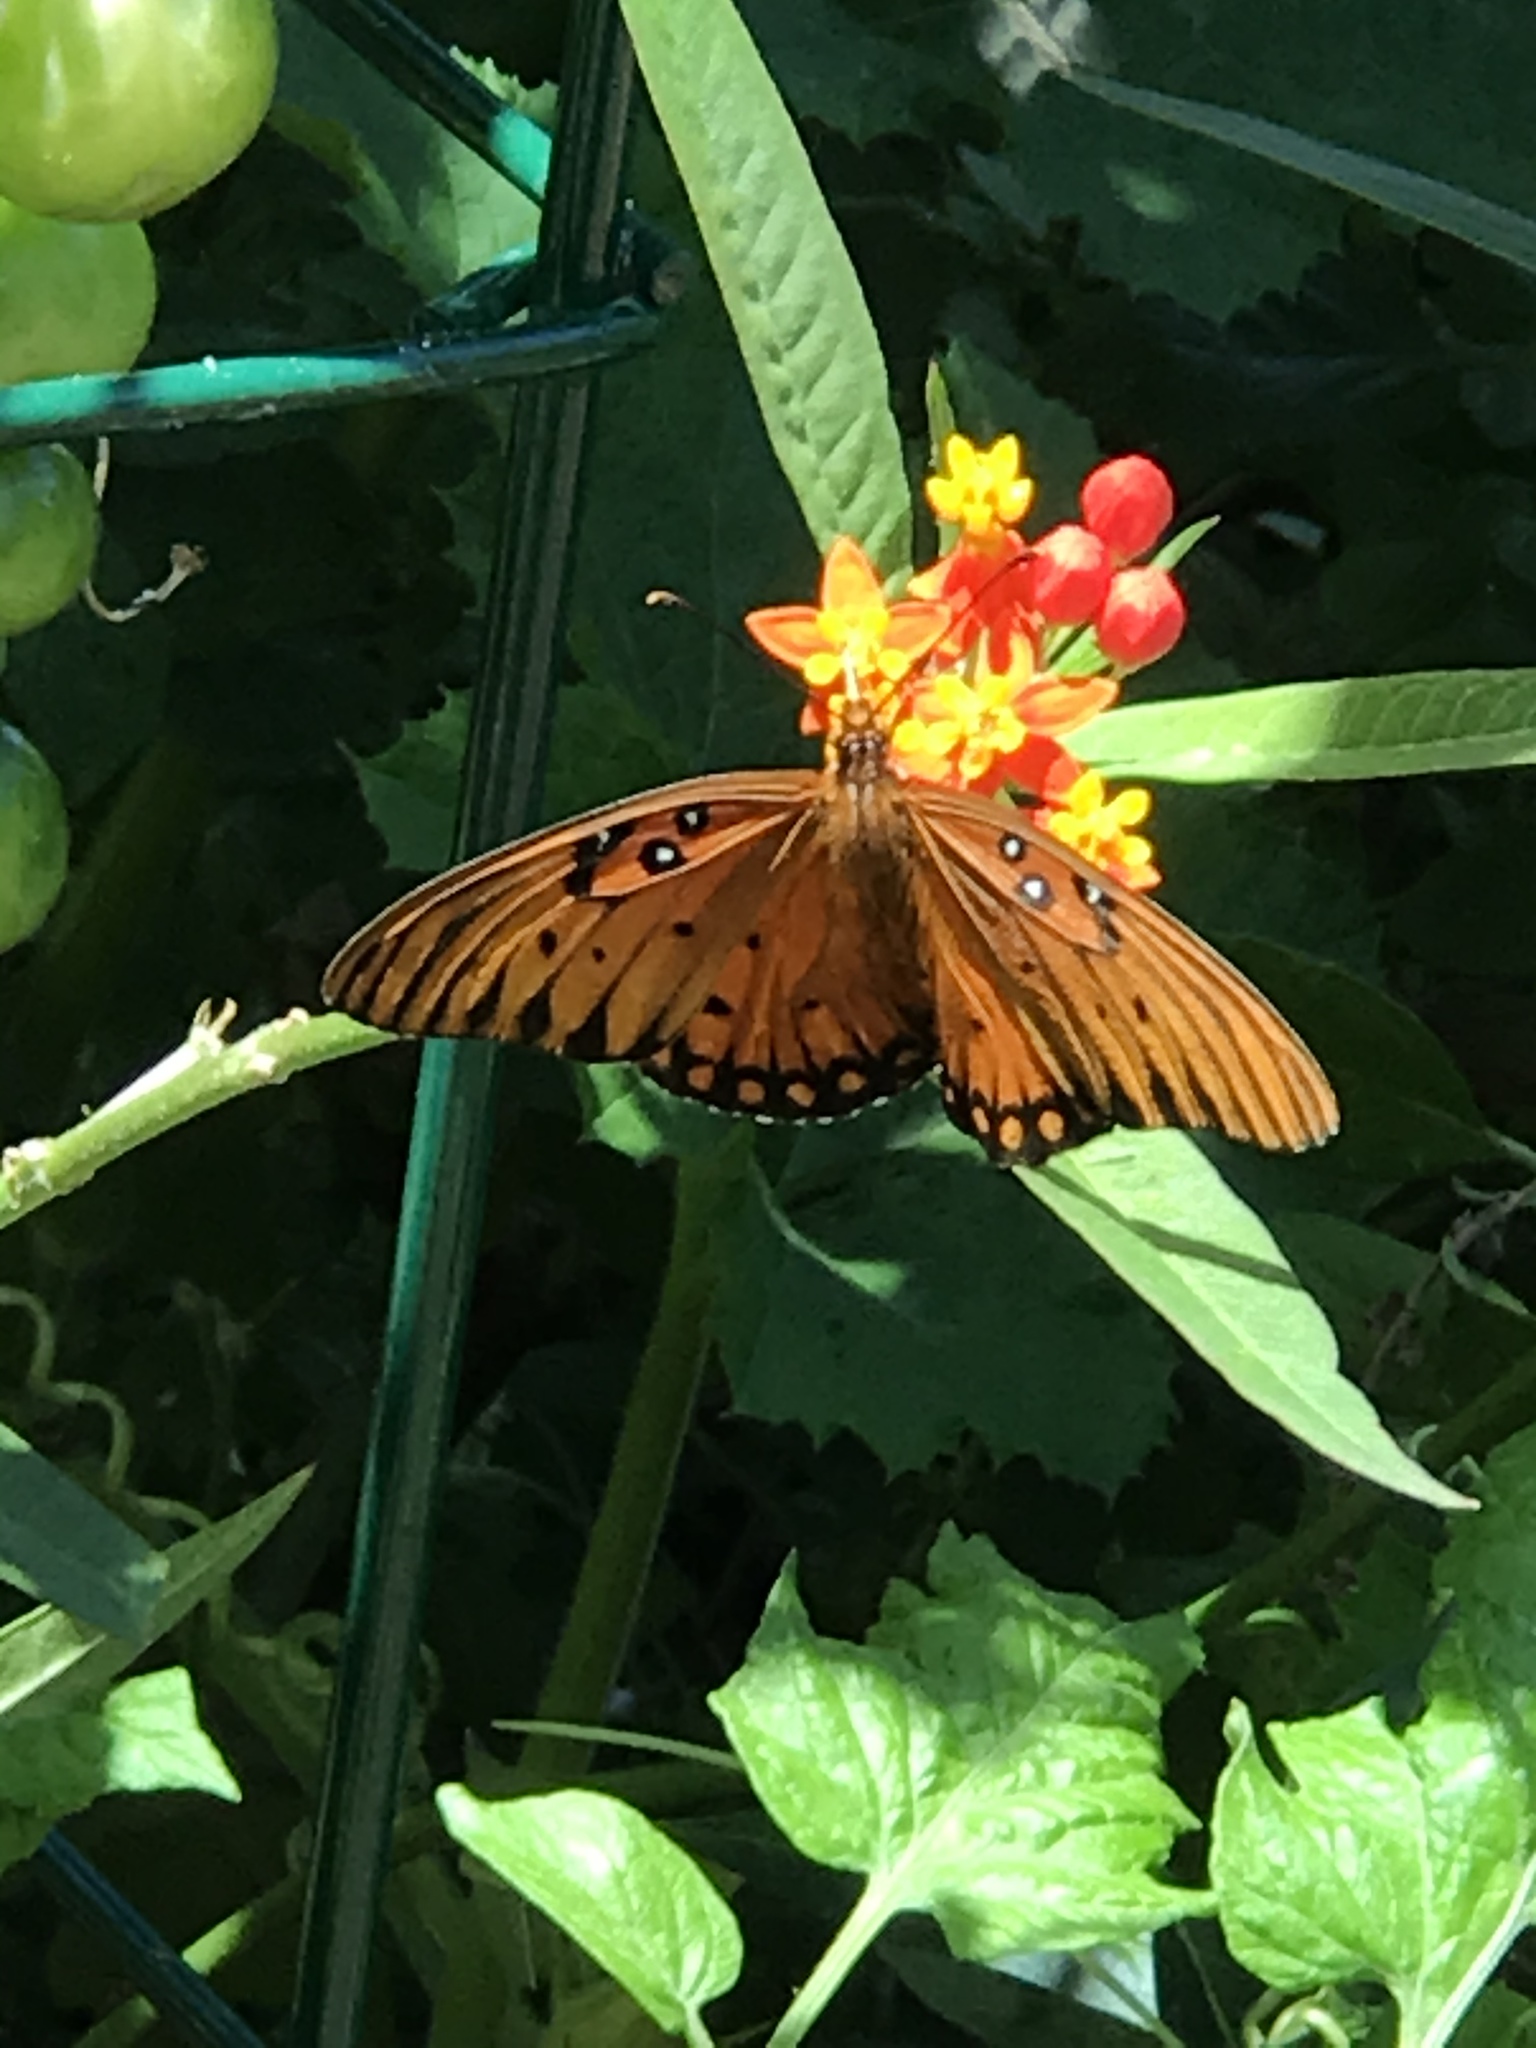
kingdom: Animalia
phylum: Arthropoda
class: Insecta
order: Lepidoptera
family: Nymphalidae
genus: Dione
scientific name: Dione vanillae
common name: Gulf fritillary
